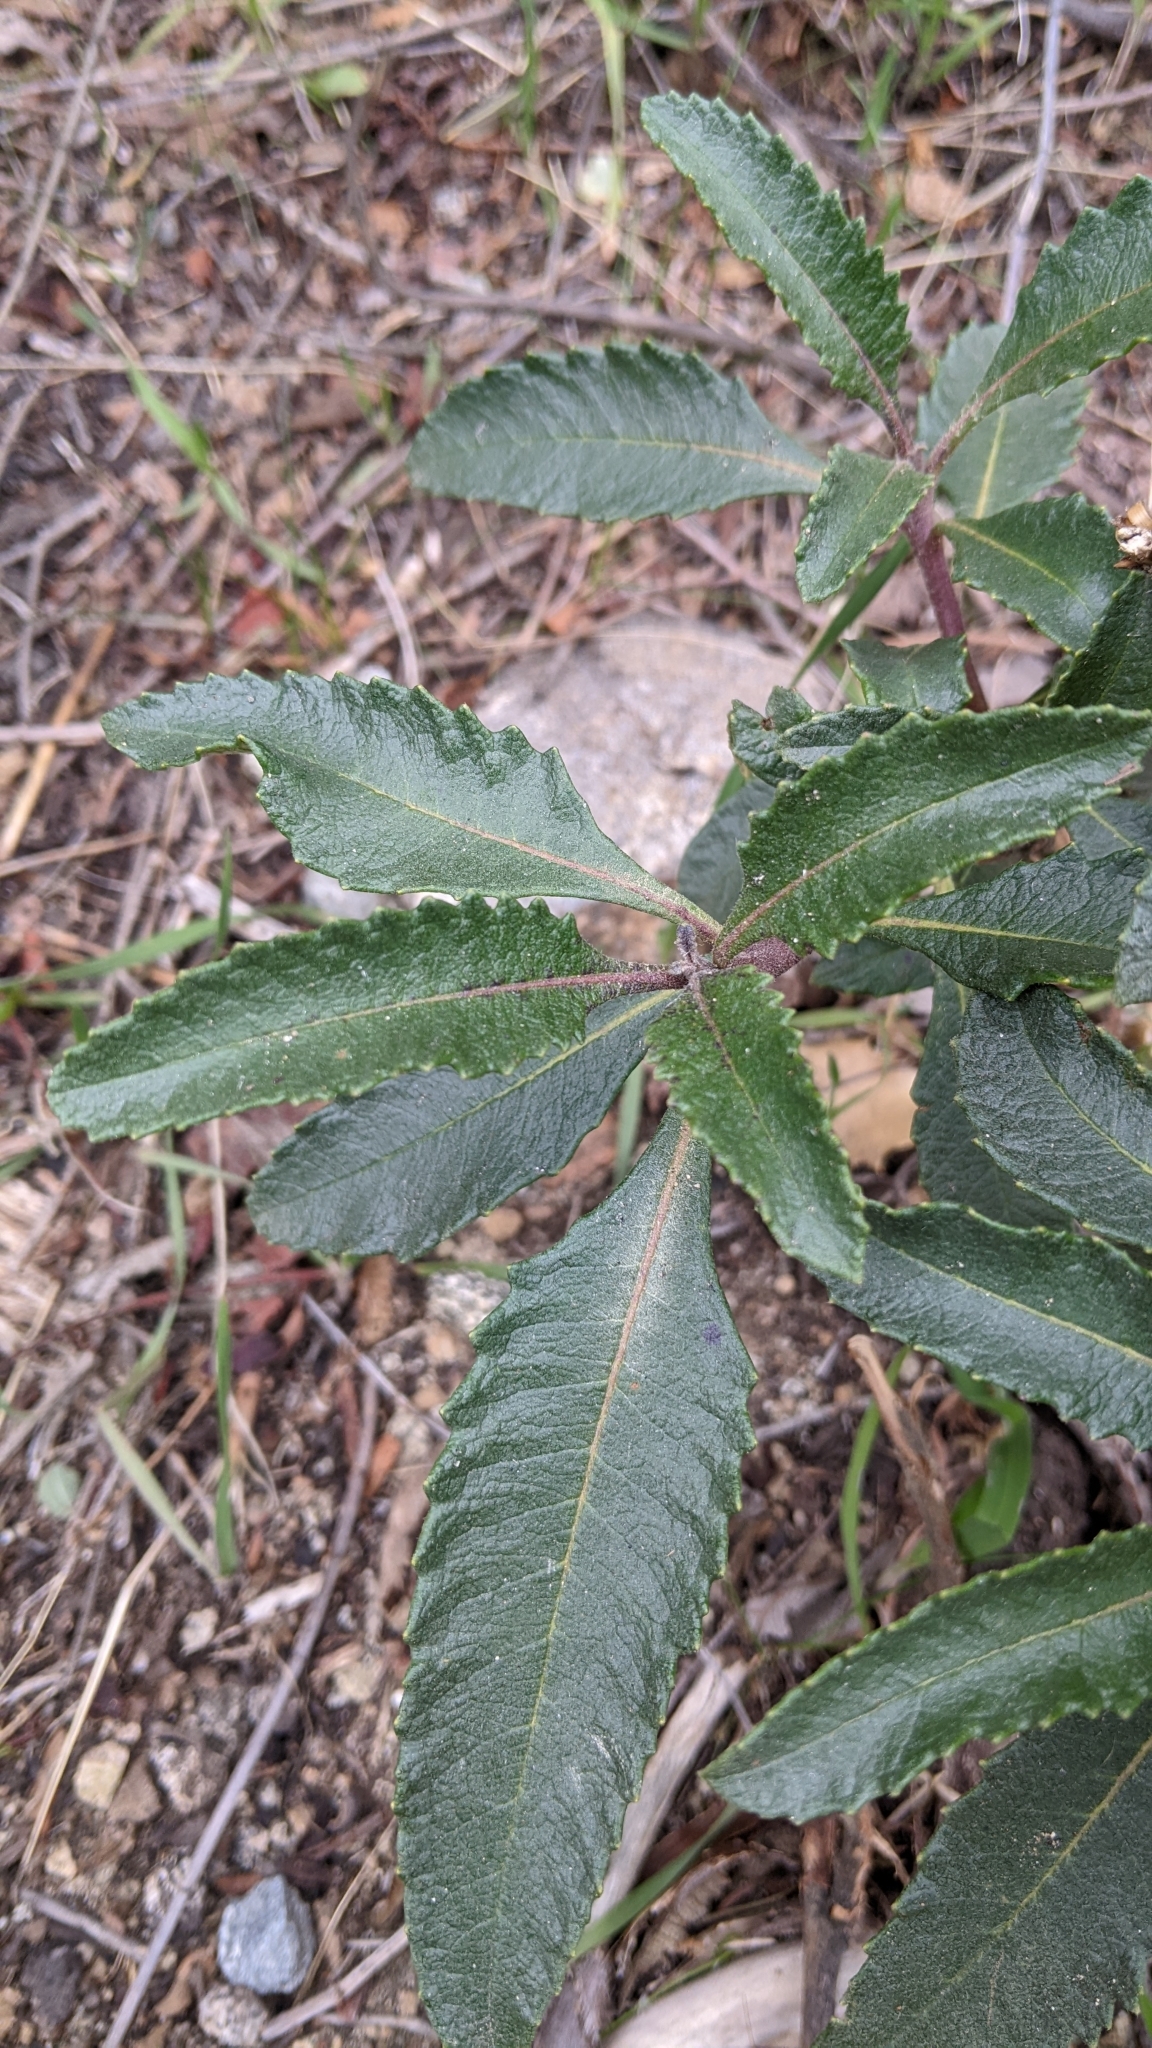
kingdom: Plantae
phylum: Tracheophyta
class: Magnoliopsida
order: Boraginales
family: Namaceae
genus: Eriodictyon
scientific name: Eriodictyon trichocalyx
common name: Hairy yerba-santa
